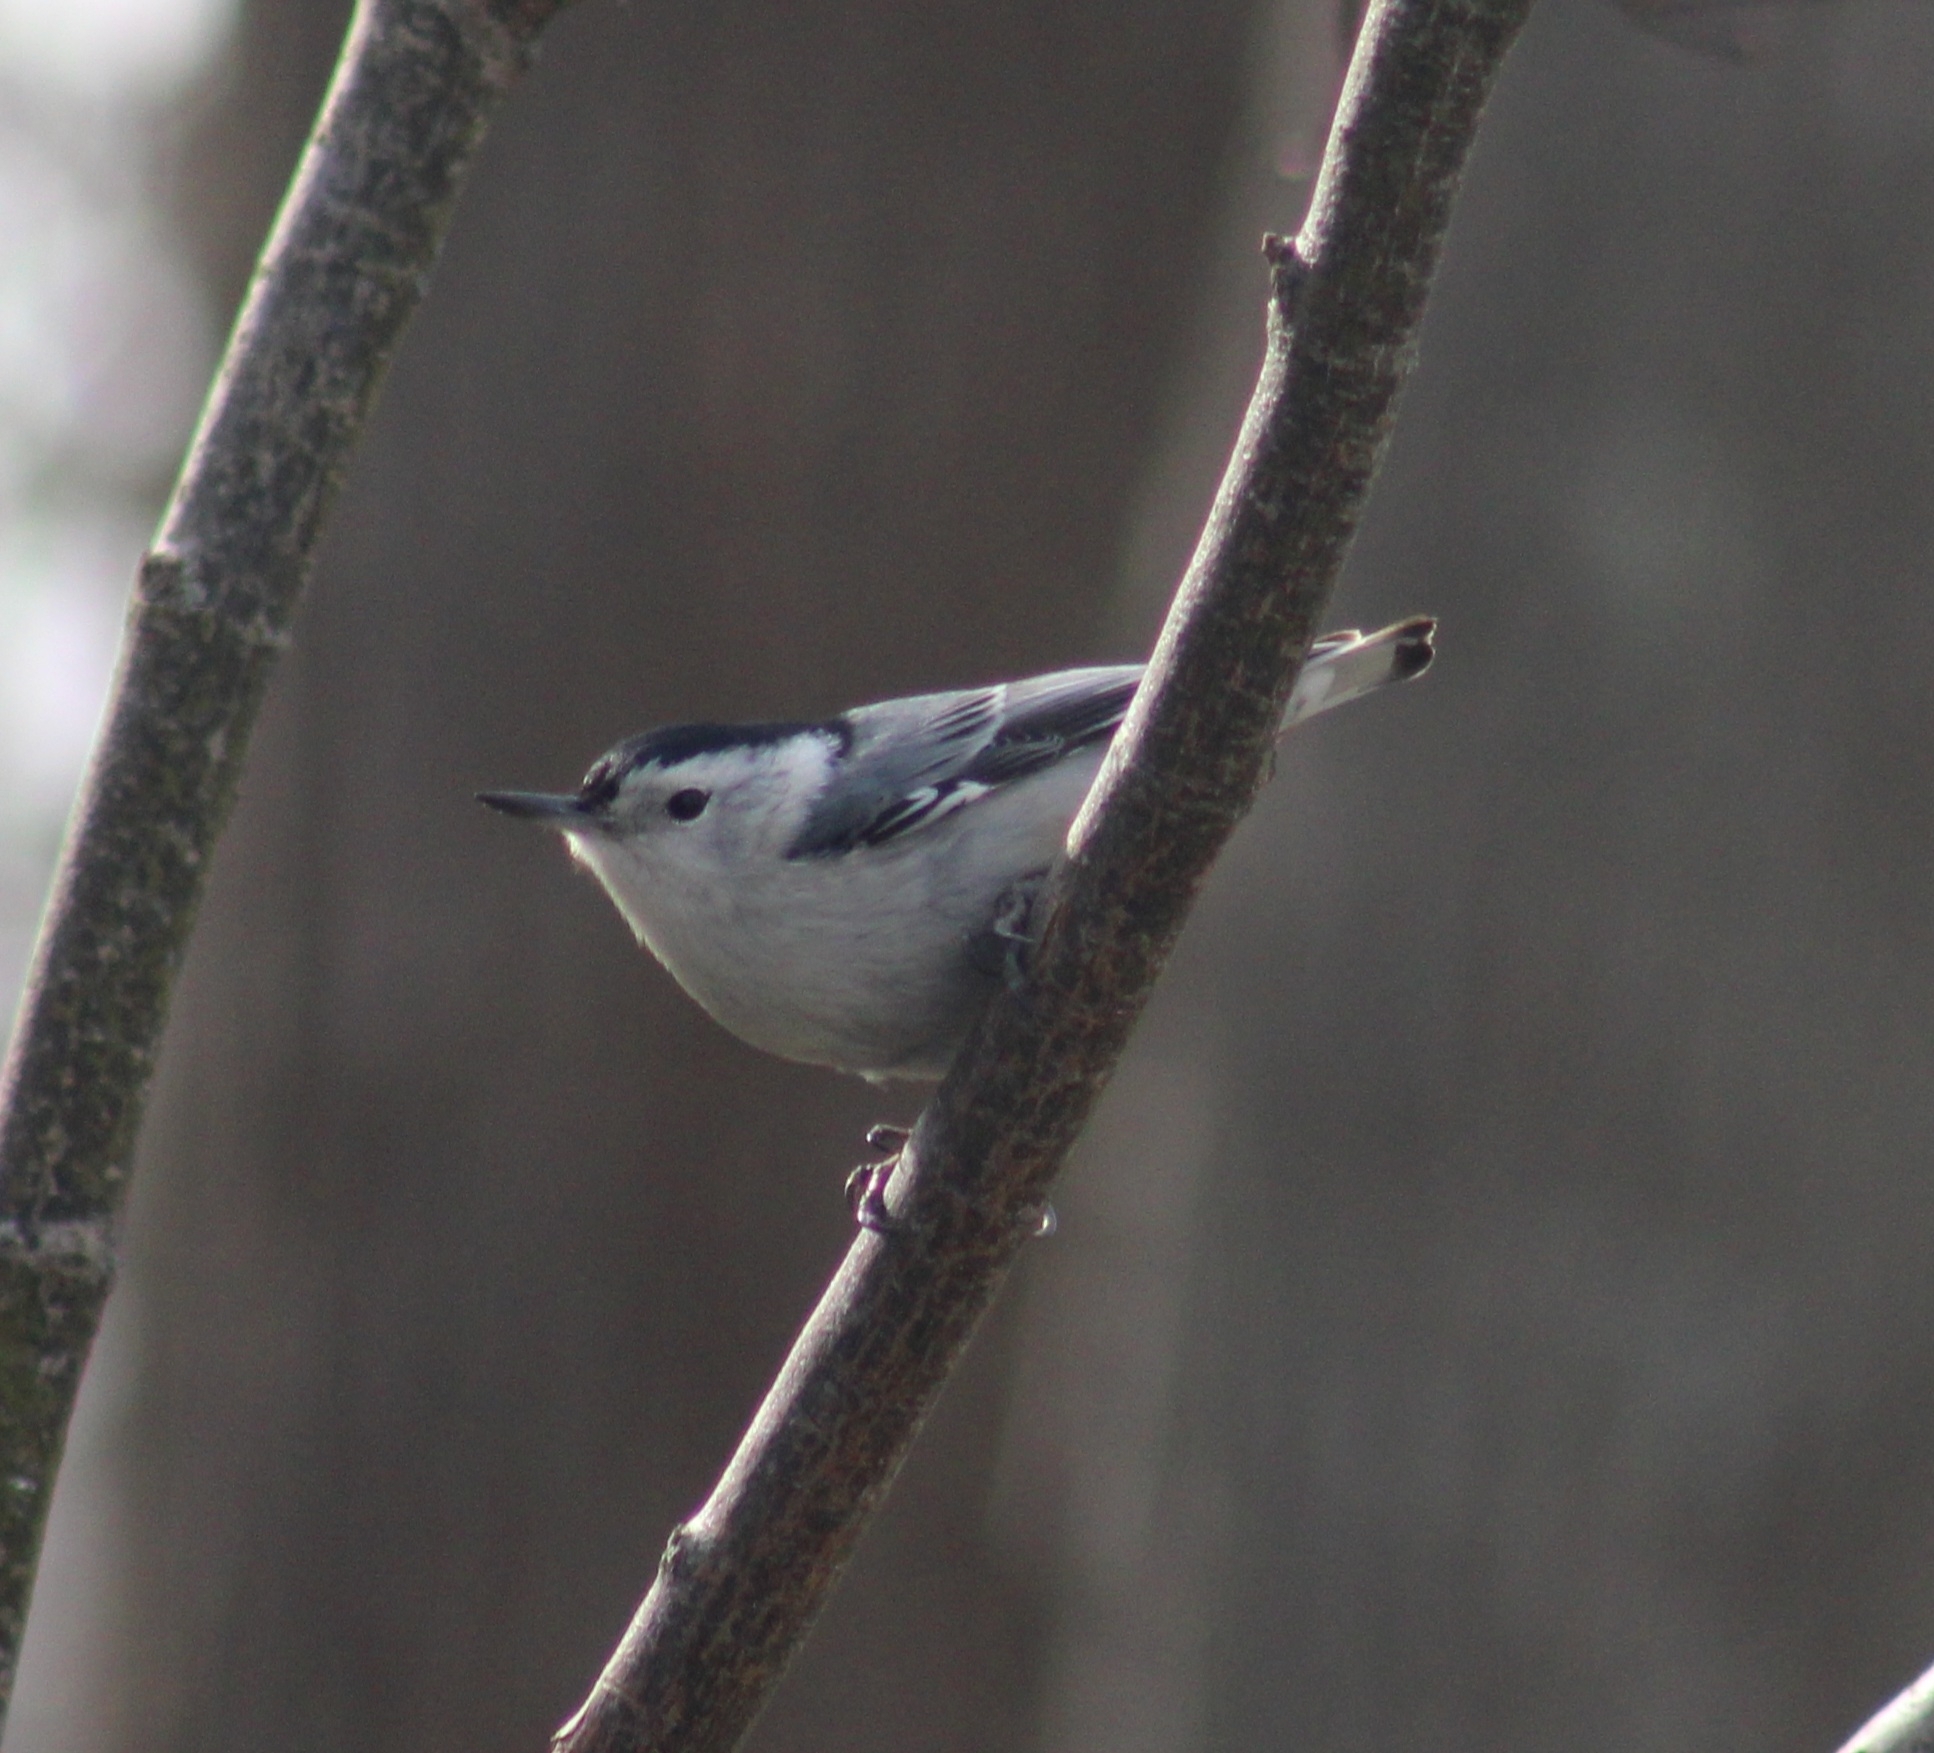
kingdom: Animalia
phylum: Chordata
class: Aves
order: Passeriformes
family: Sittidae
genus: Sitta
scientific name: Sitta carolinensis
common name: White-breasted nuthatch
